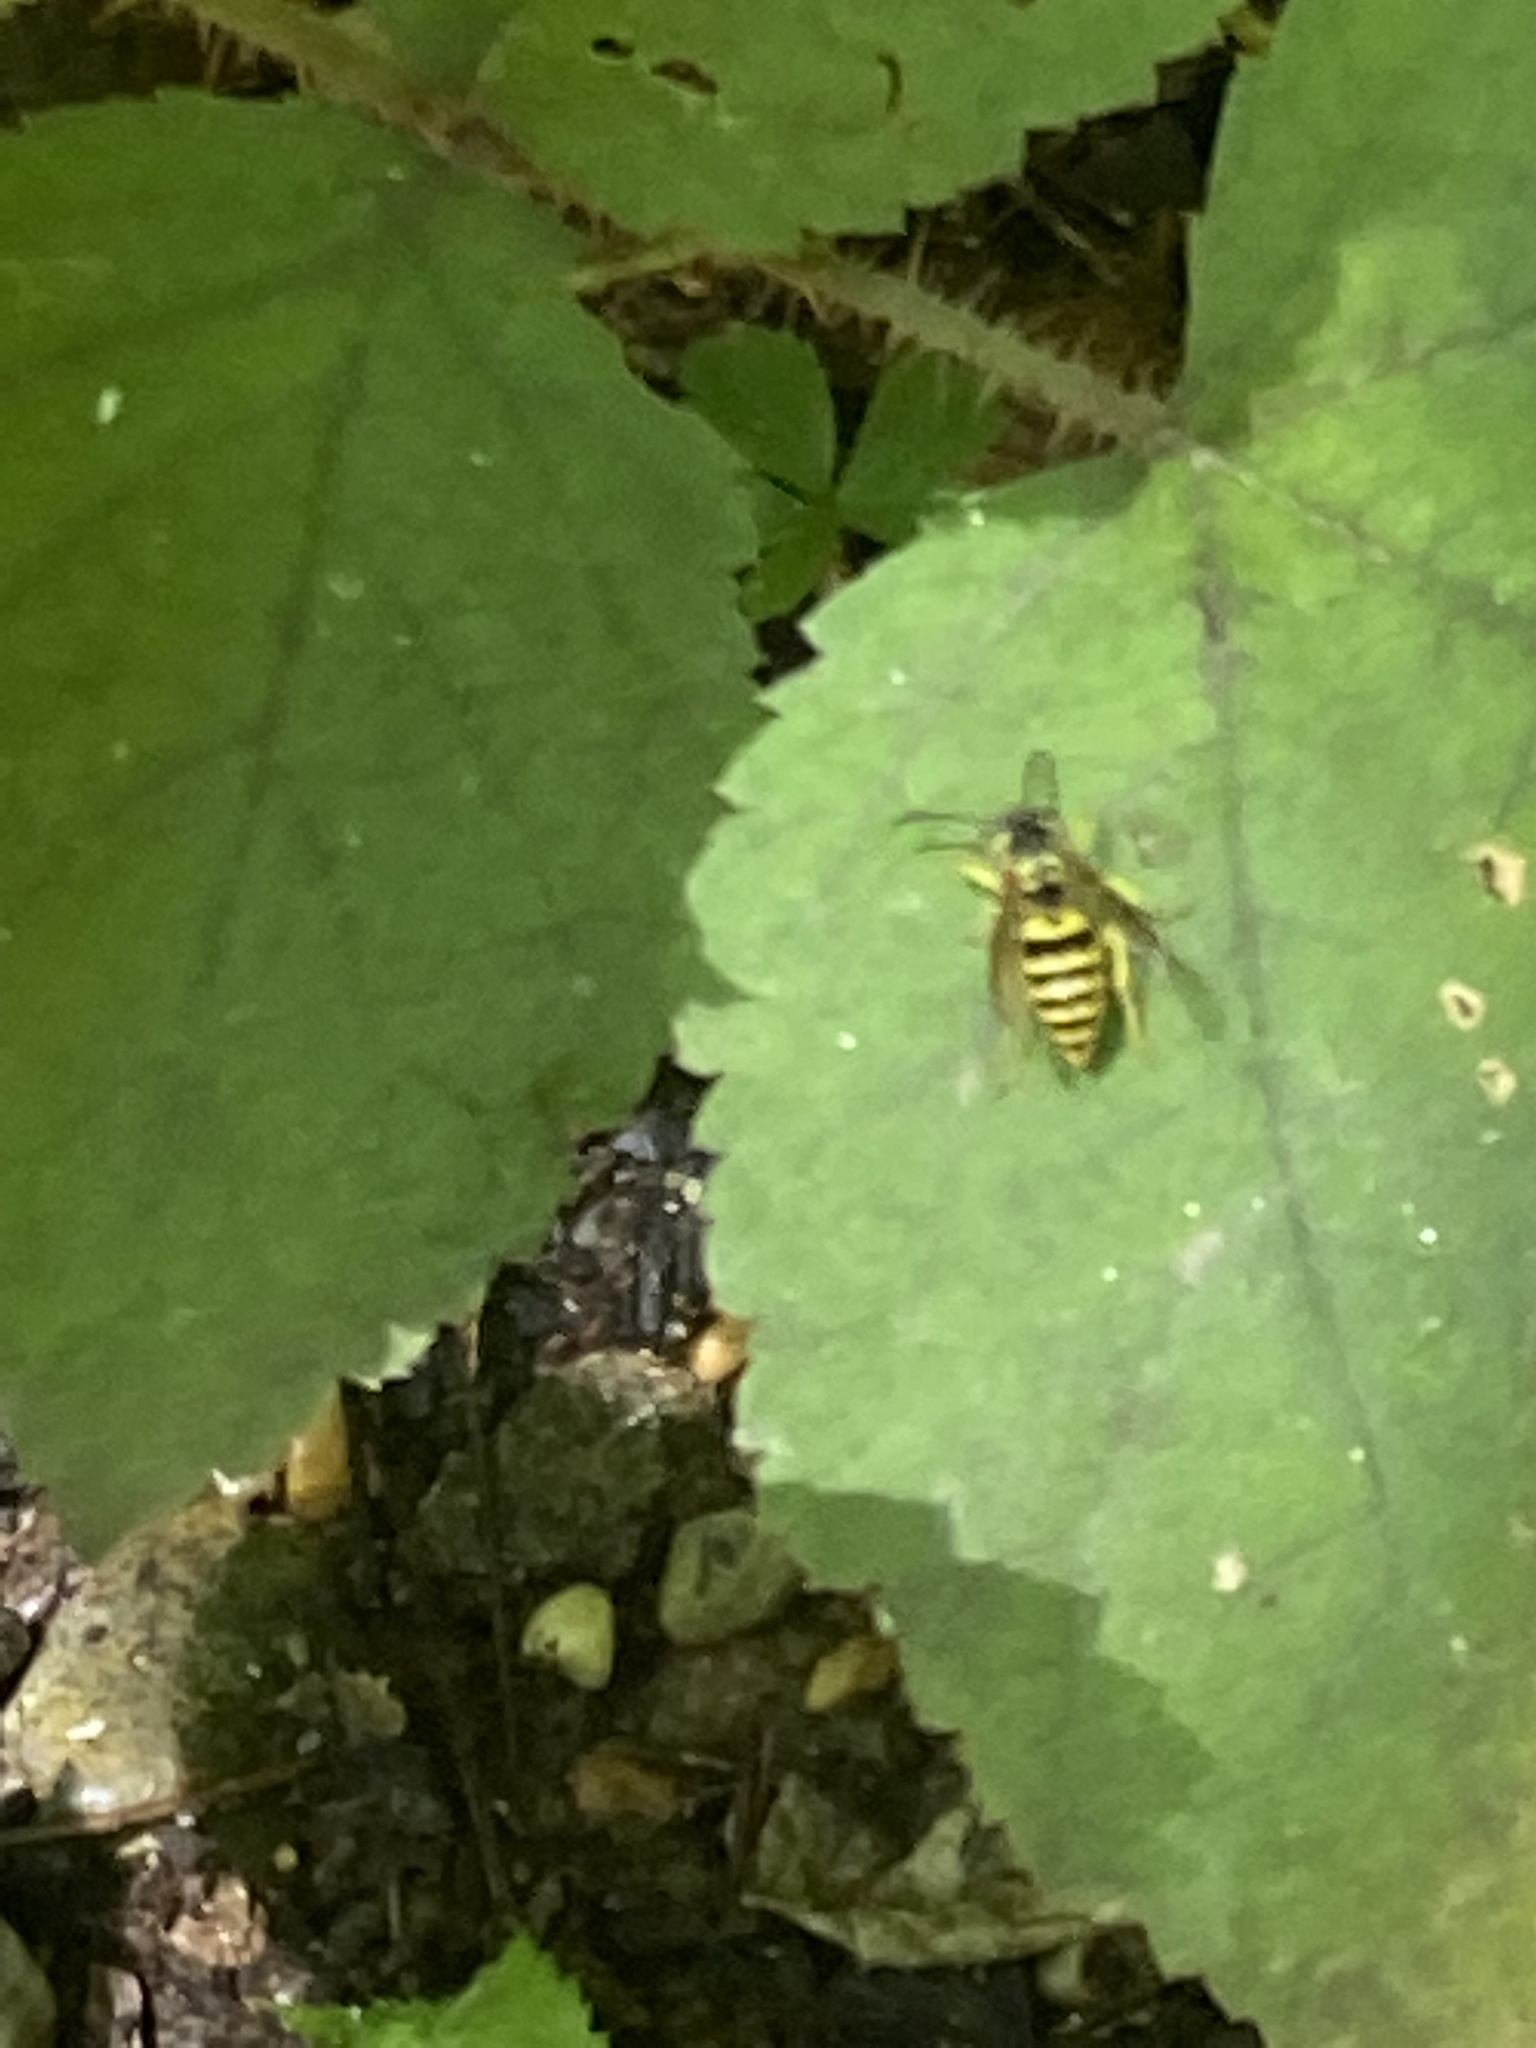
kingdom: Animalia
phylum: Arthropoda
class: Insecta
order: Hymenoptera
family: Vespidae
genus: Vespula
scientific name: Vespula maculifrons
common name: Eastern yellowjacket
